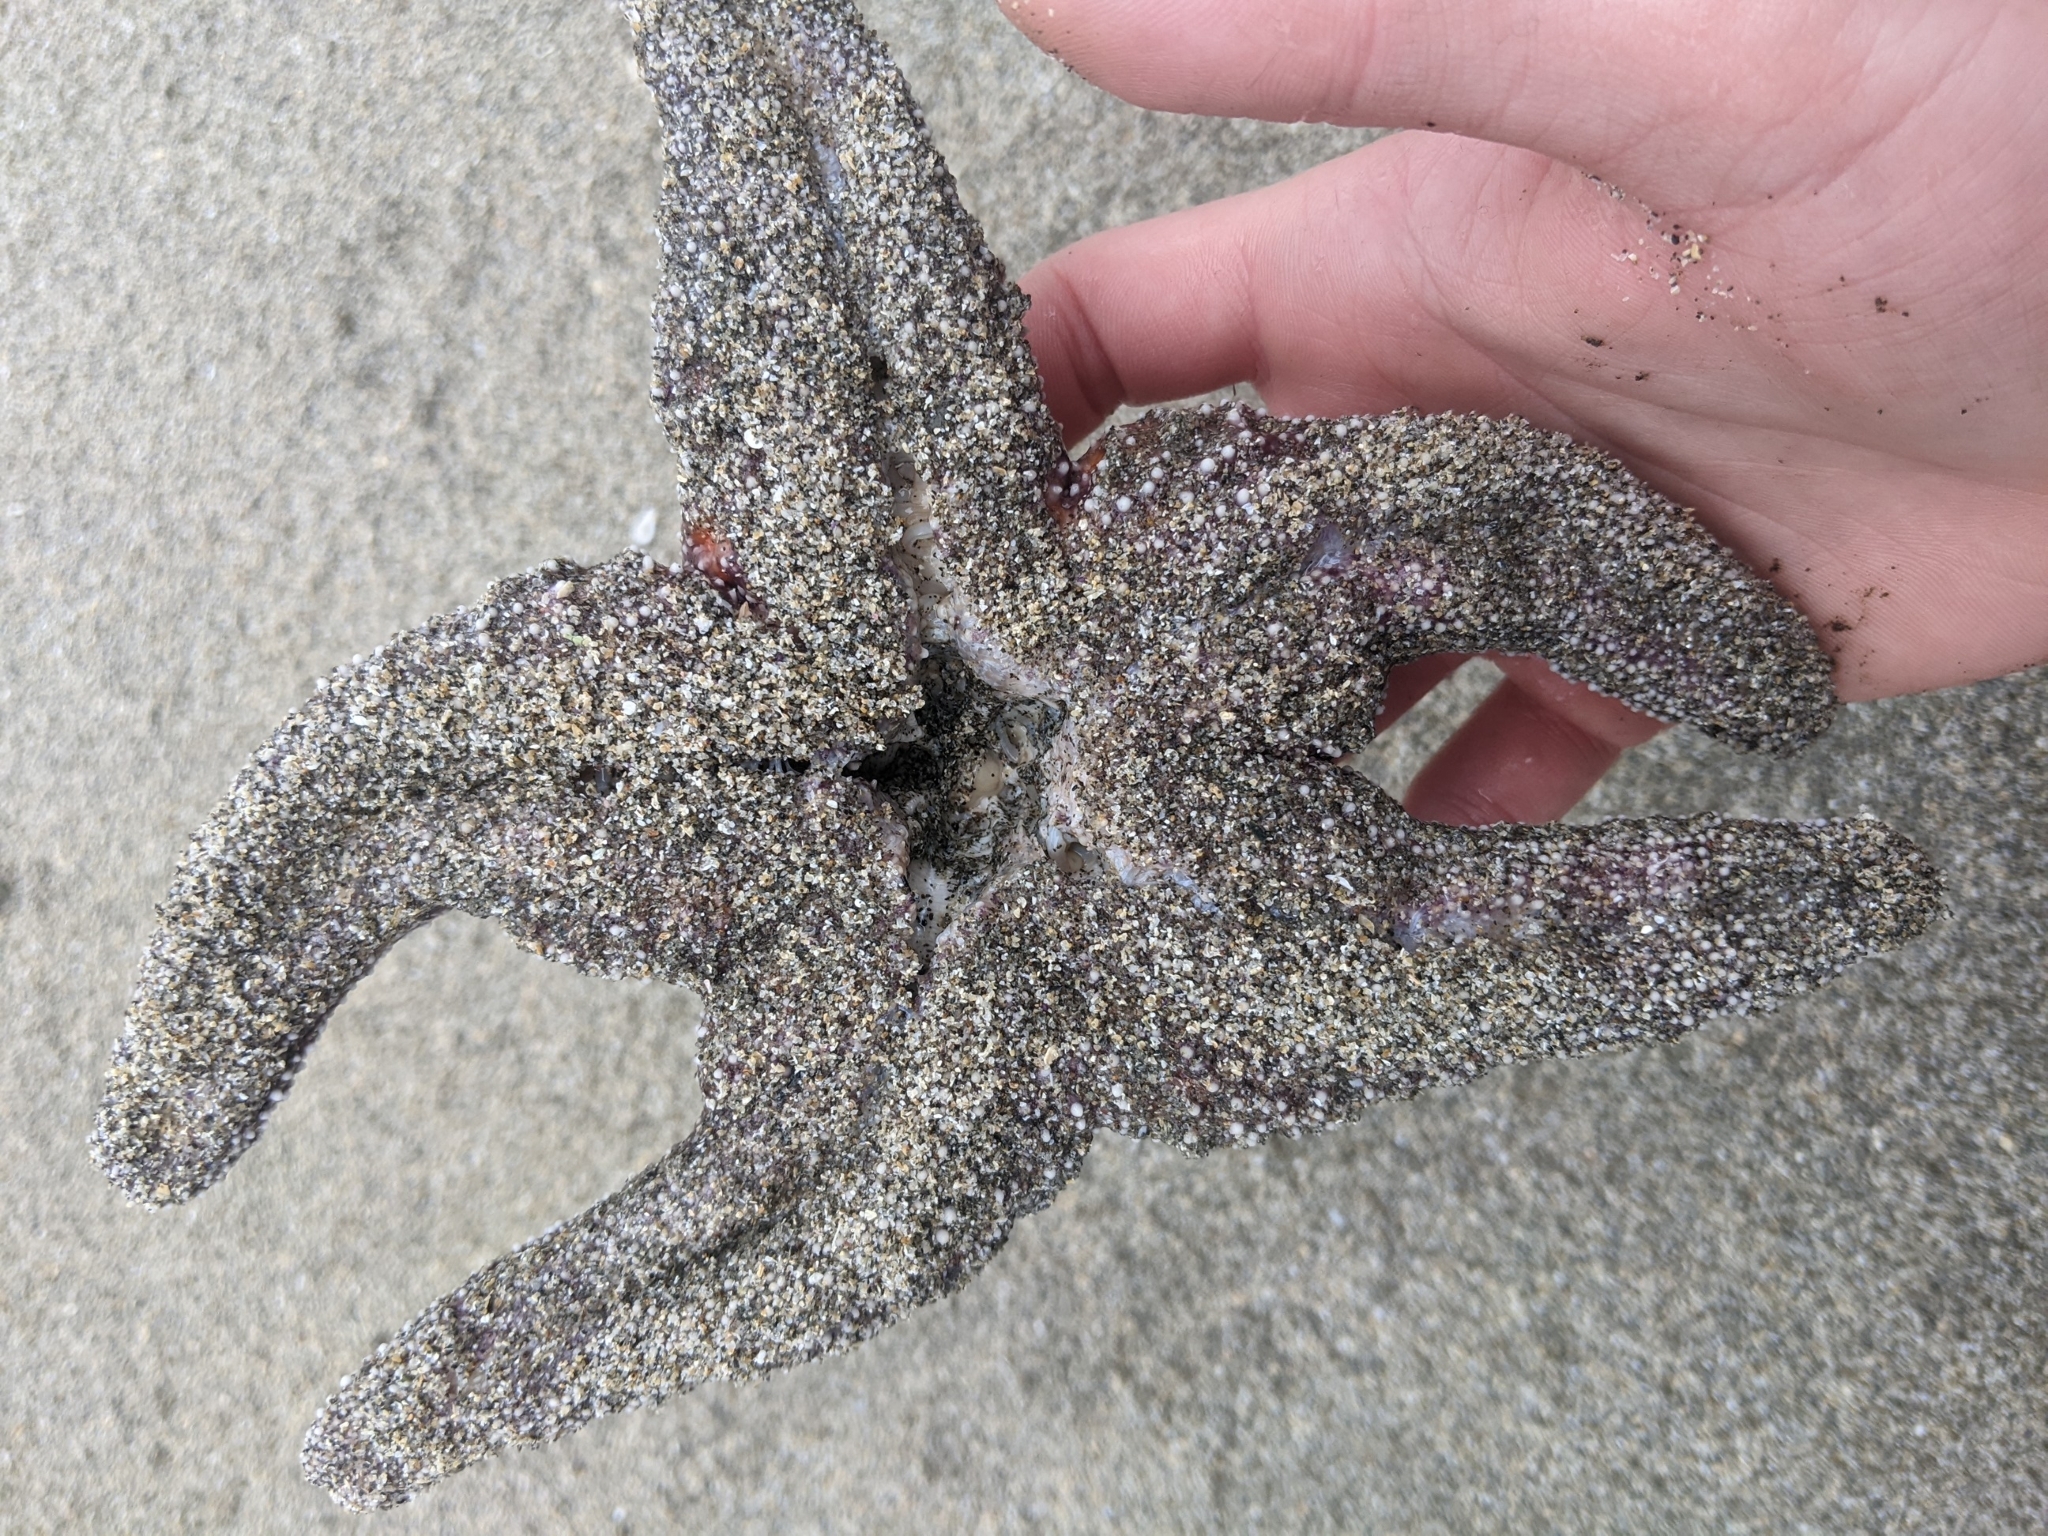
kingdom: Animalia
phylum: Echinodermata
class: Asteroidea
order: Forcipulatida
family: Asteriidae
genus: Pisaster
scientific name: Pisaster ochraceus
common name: Ochre stars
